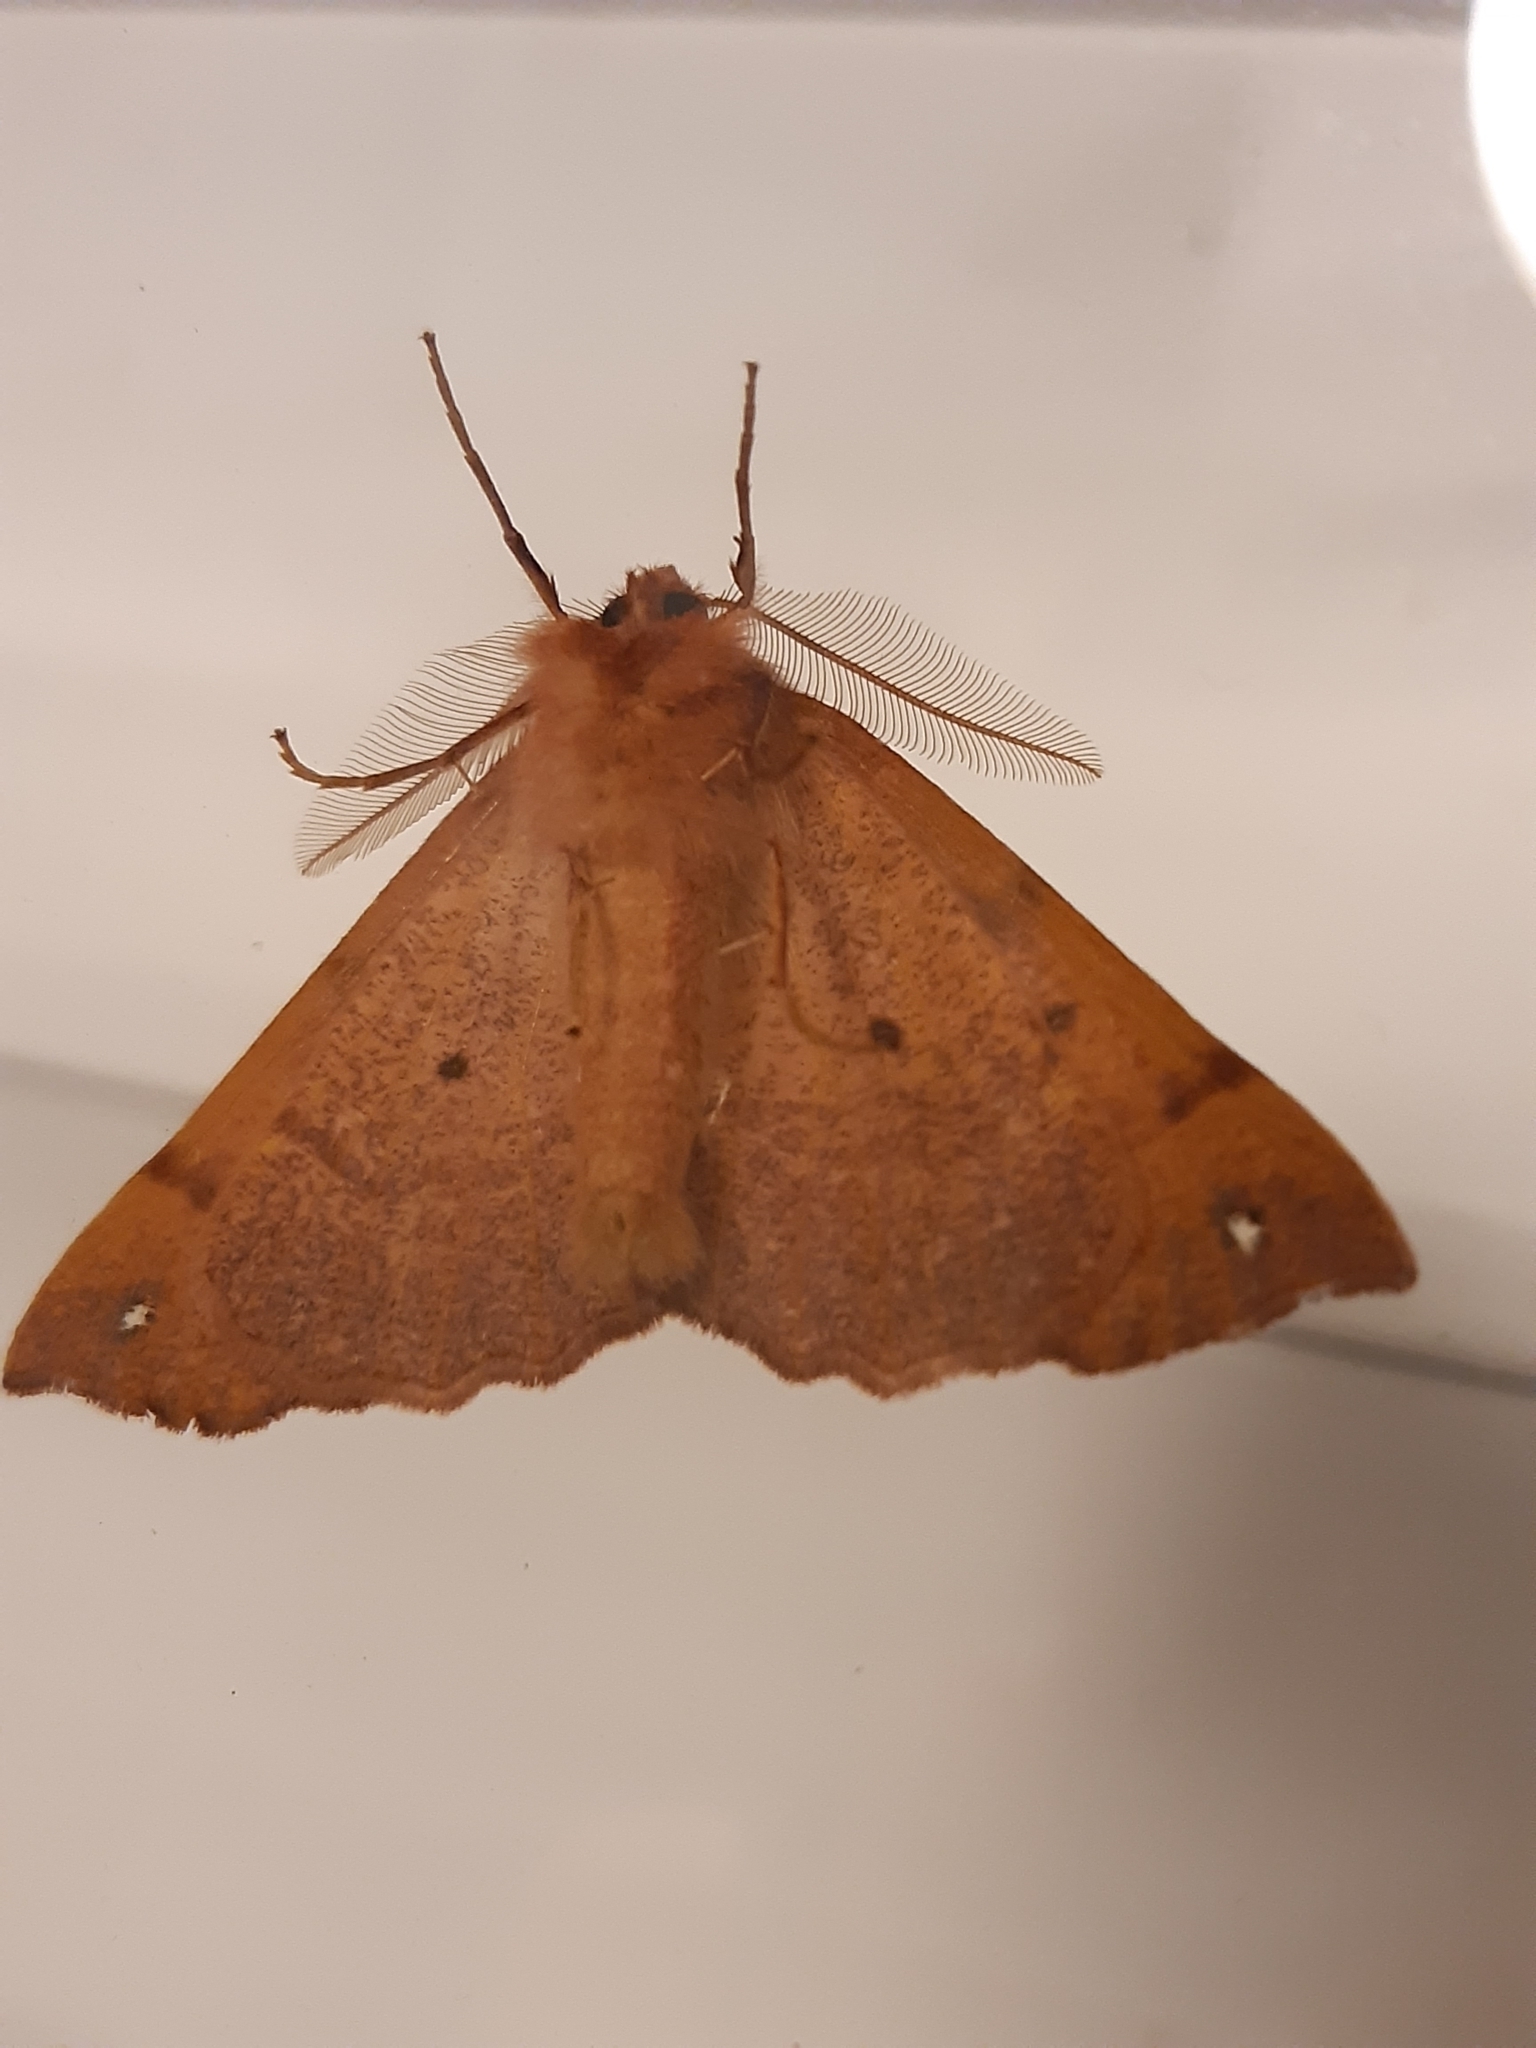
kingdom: Animalia
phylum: Arthropoda
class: Insecta
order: Lepidoptera
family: Geometridae
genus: Colotois
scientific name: Colotois pennaria
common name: Feathered thorn
